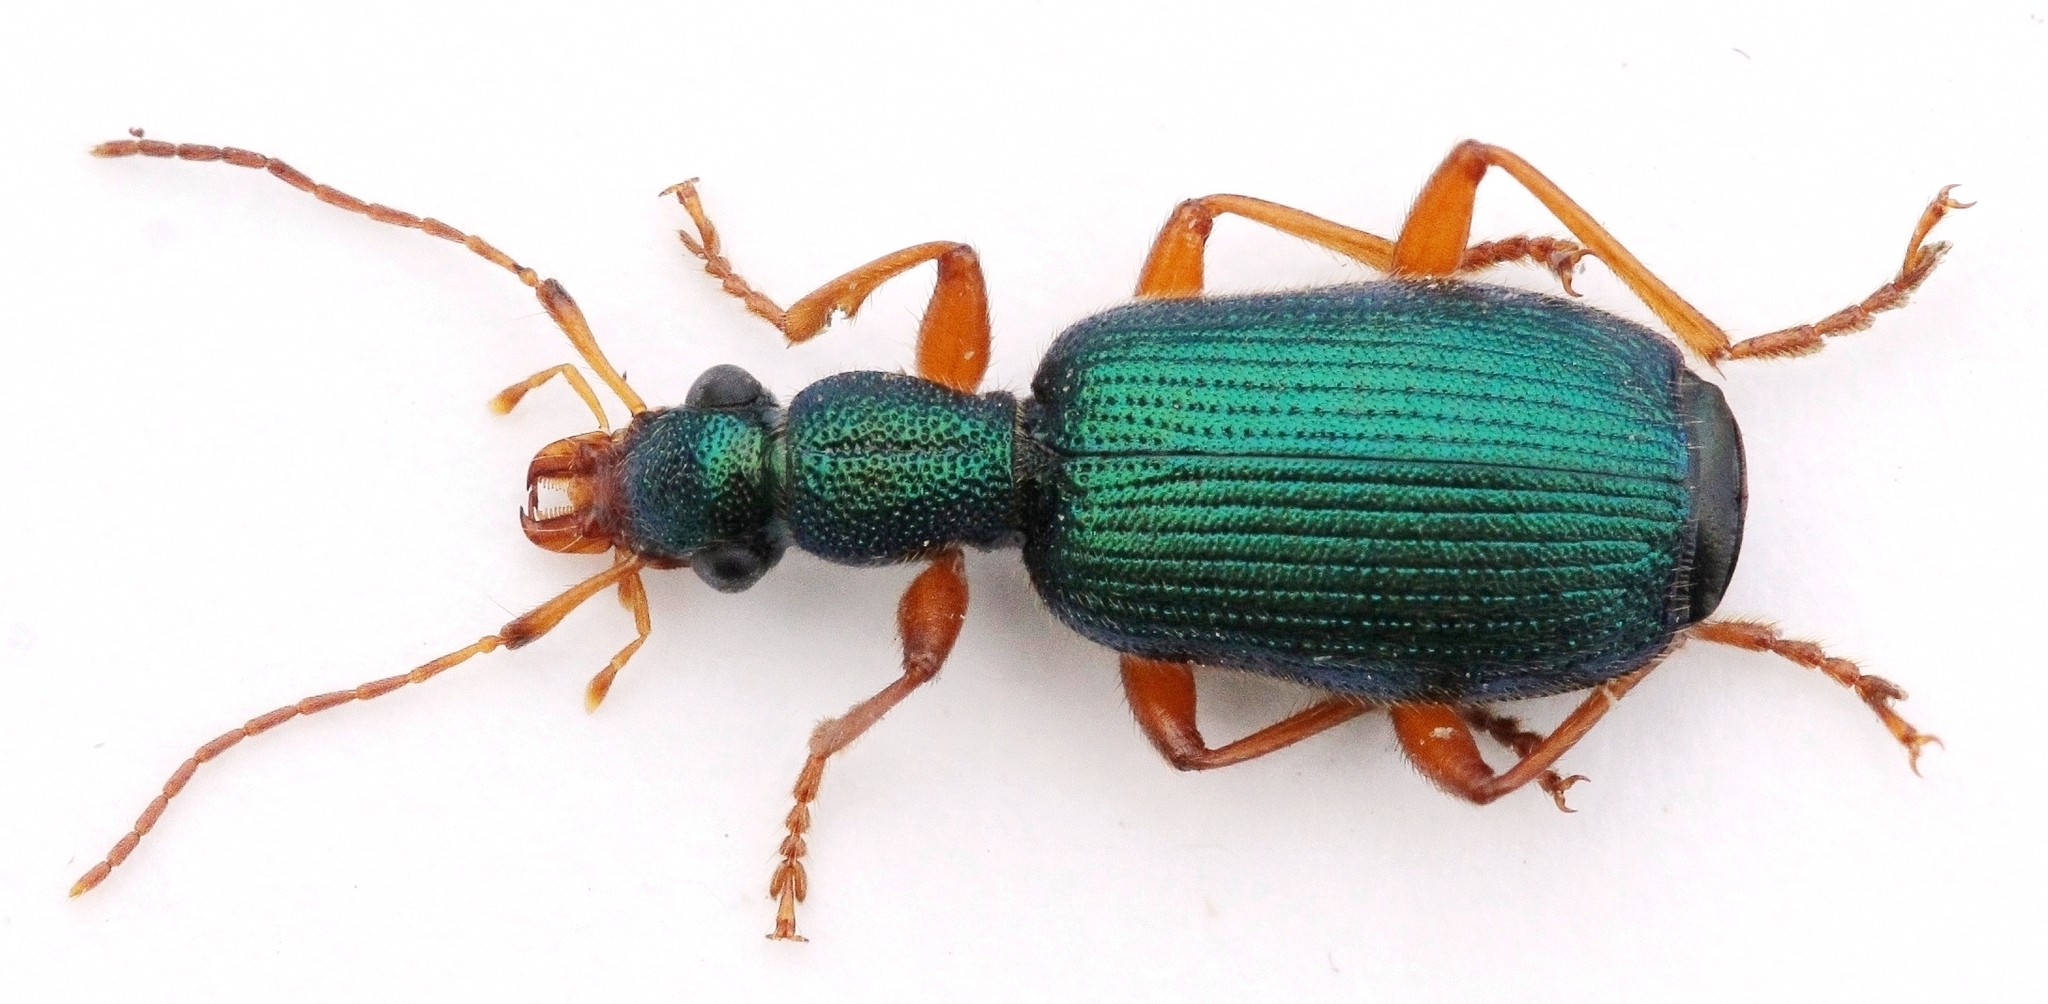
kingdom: Animalia
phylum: Arthropoda
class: Insecta
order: Coleoptera
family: Carabidae
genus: Drypta
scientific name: Drypta dentata
